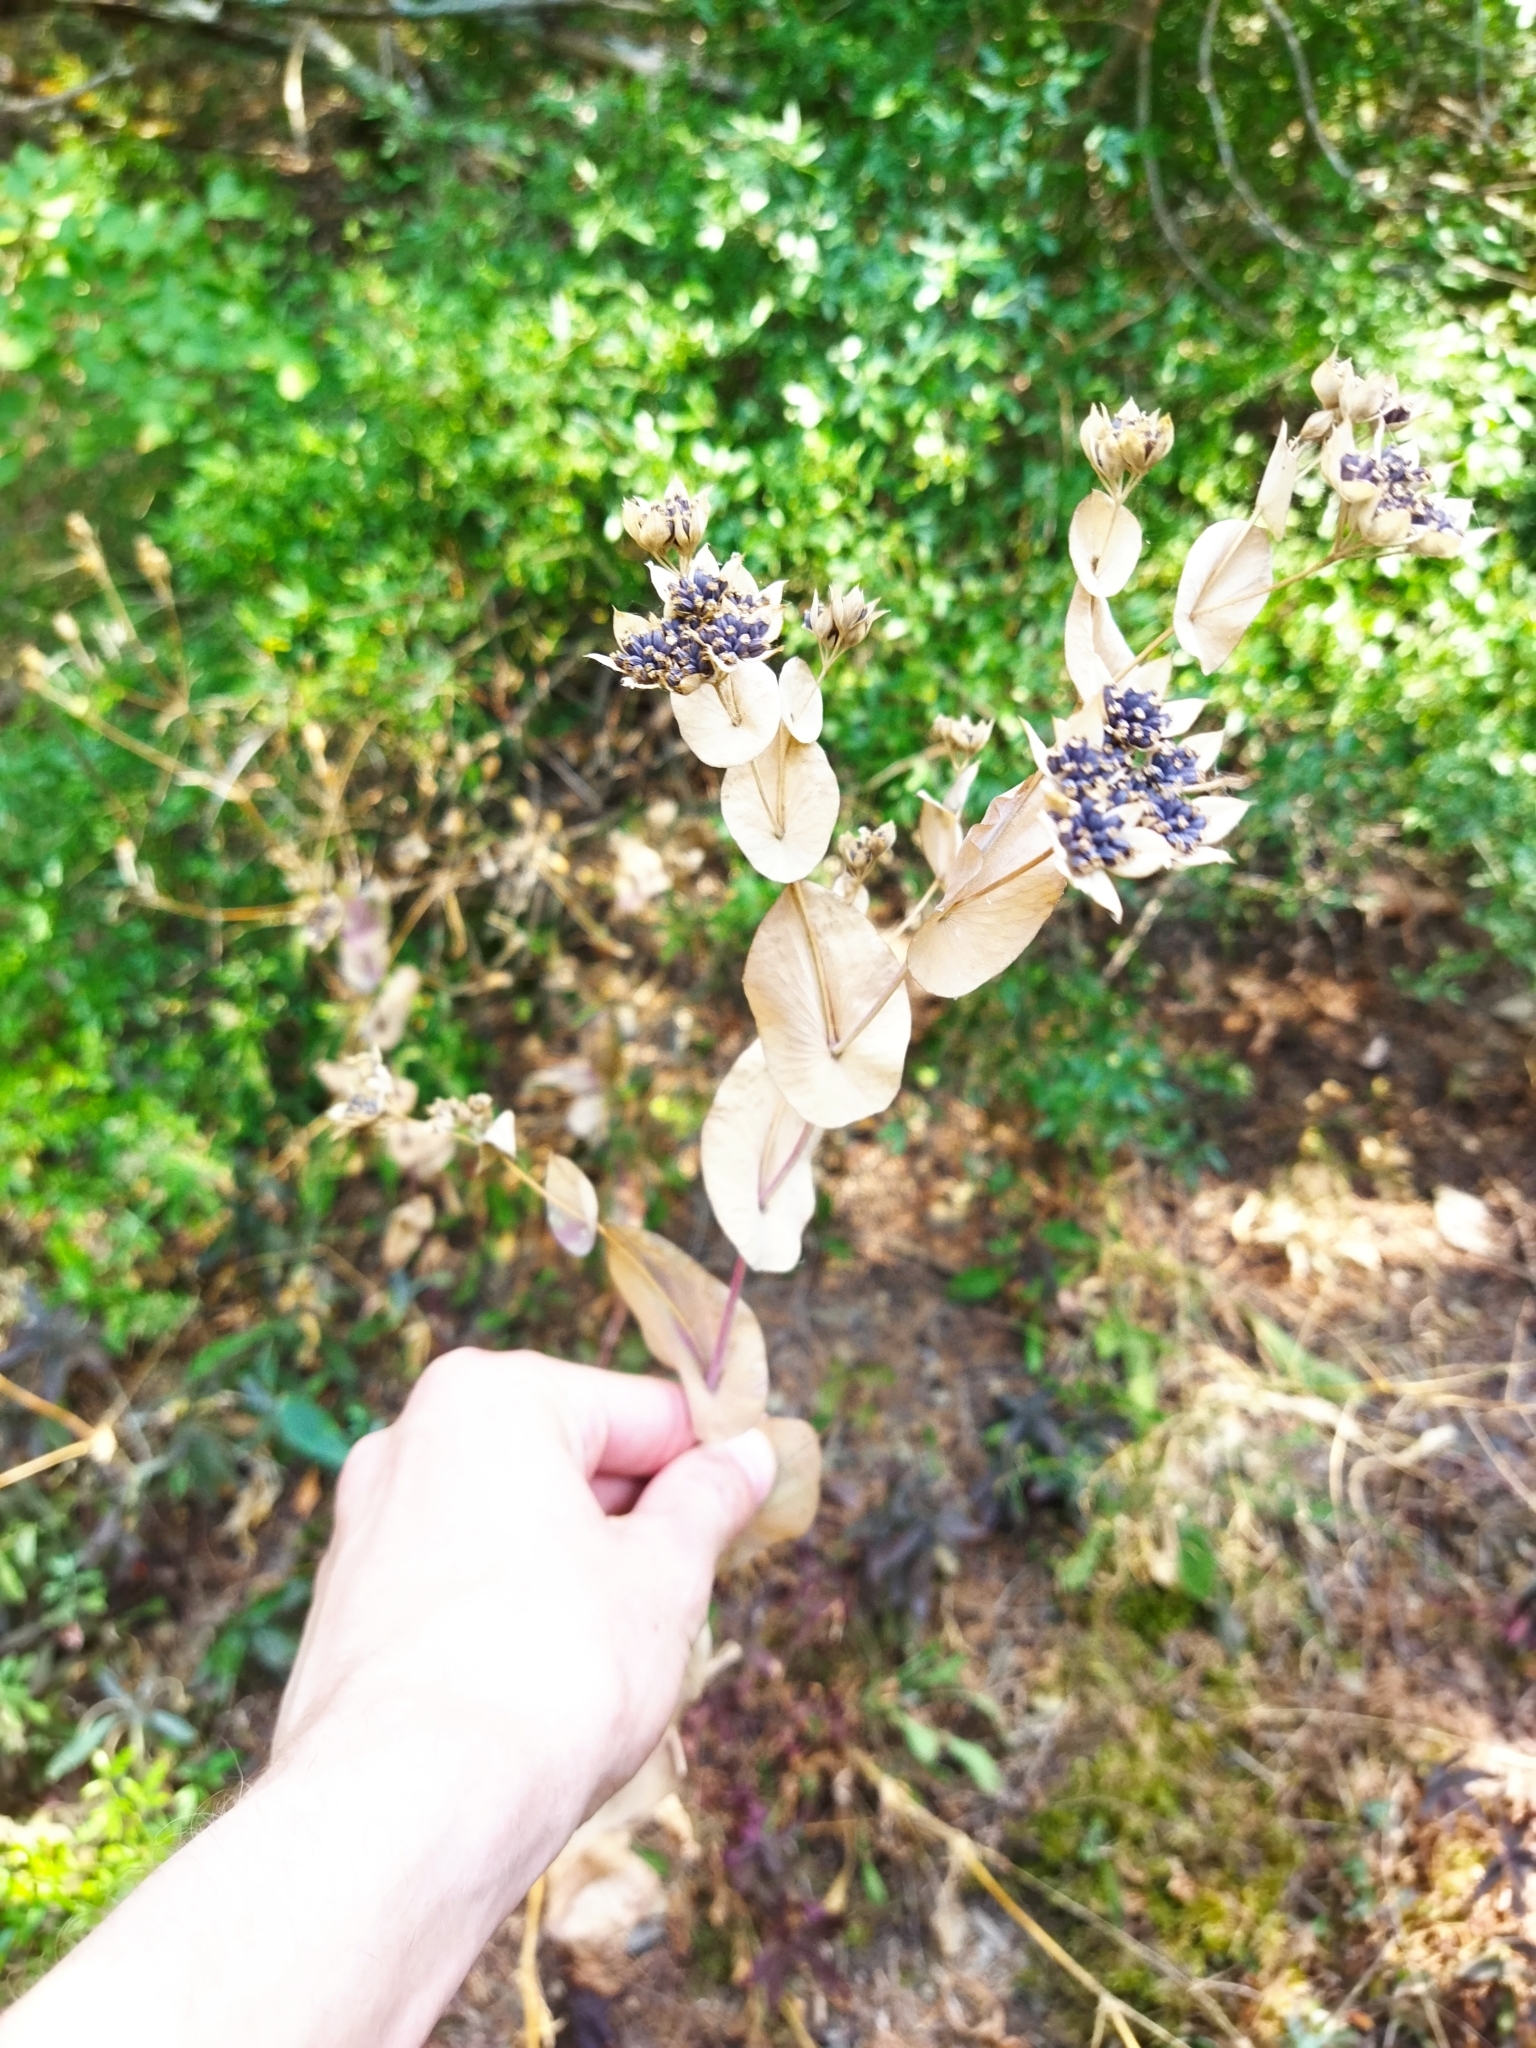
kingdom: Plantae
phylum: Tracheophyta
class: Magnoliopsida
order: Apiales
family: Apiaceae
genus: Bupleurum
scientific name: Bupleurum rotundifolium
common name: Thorow-wax
